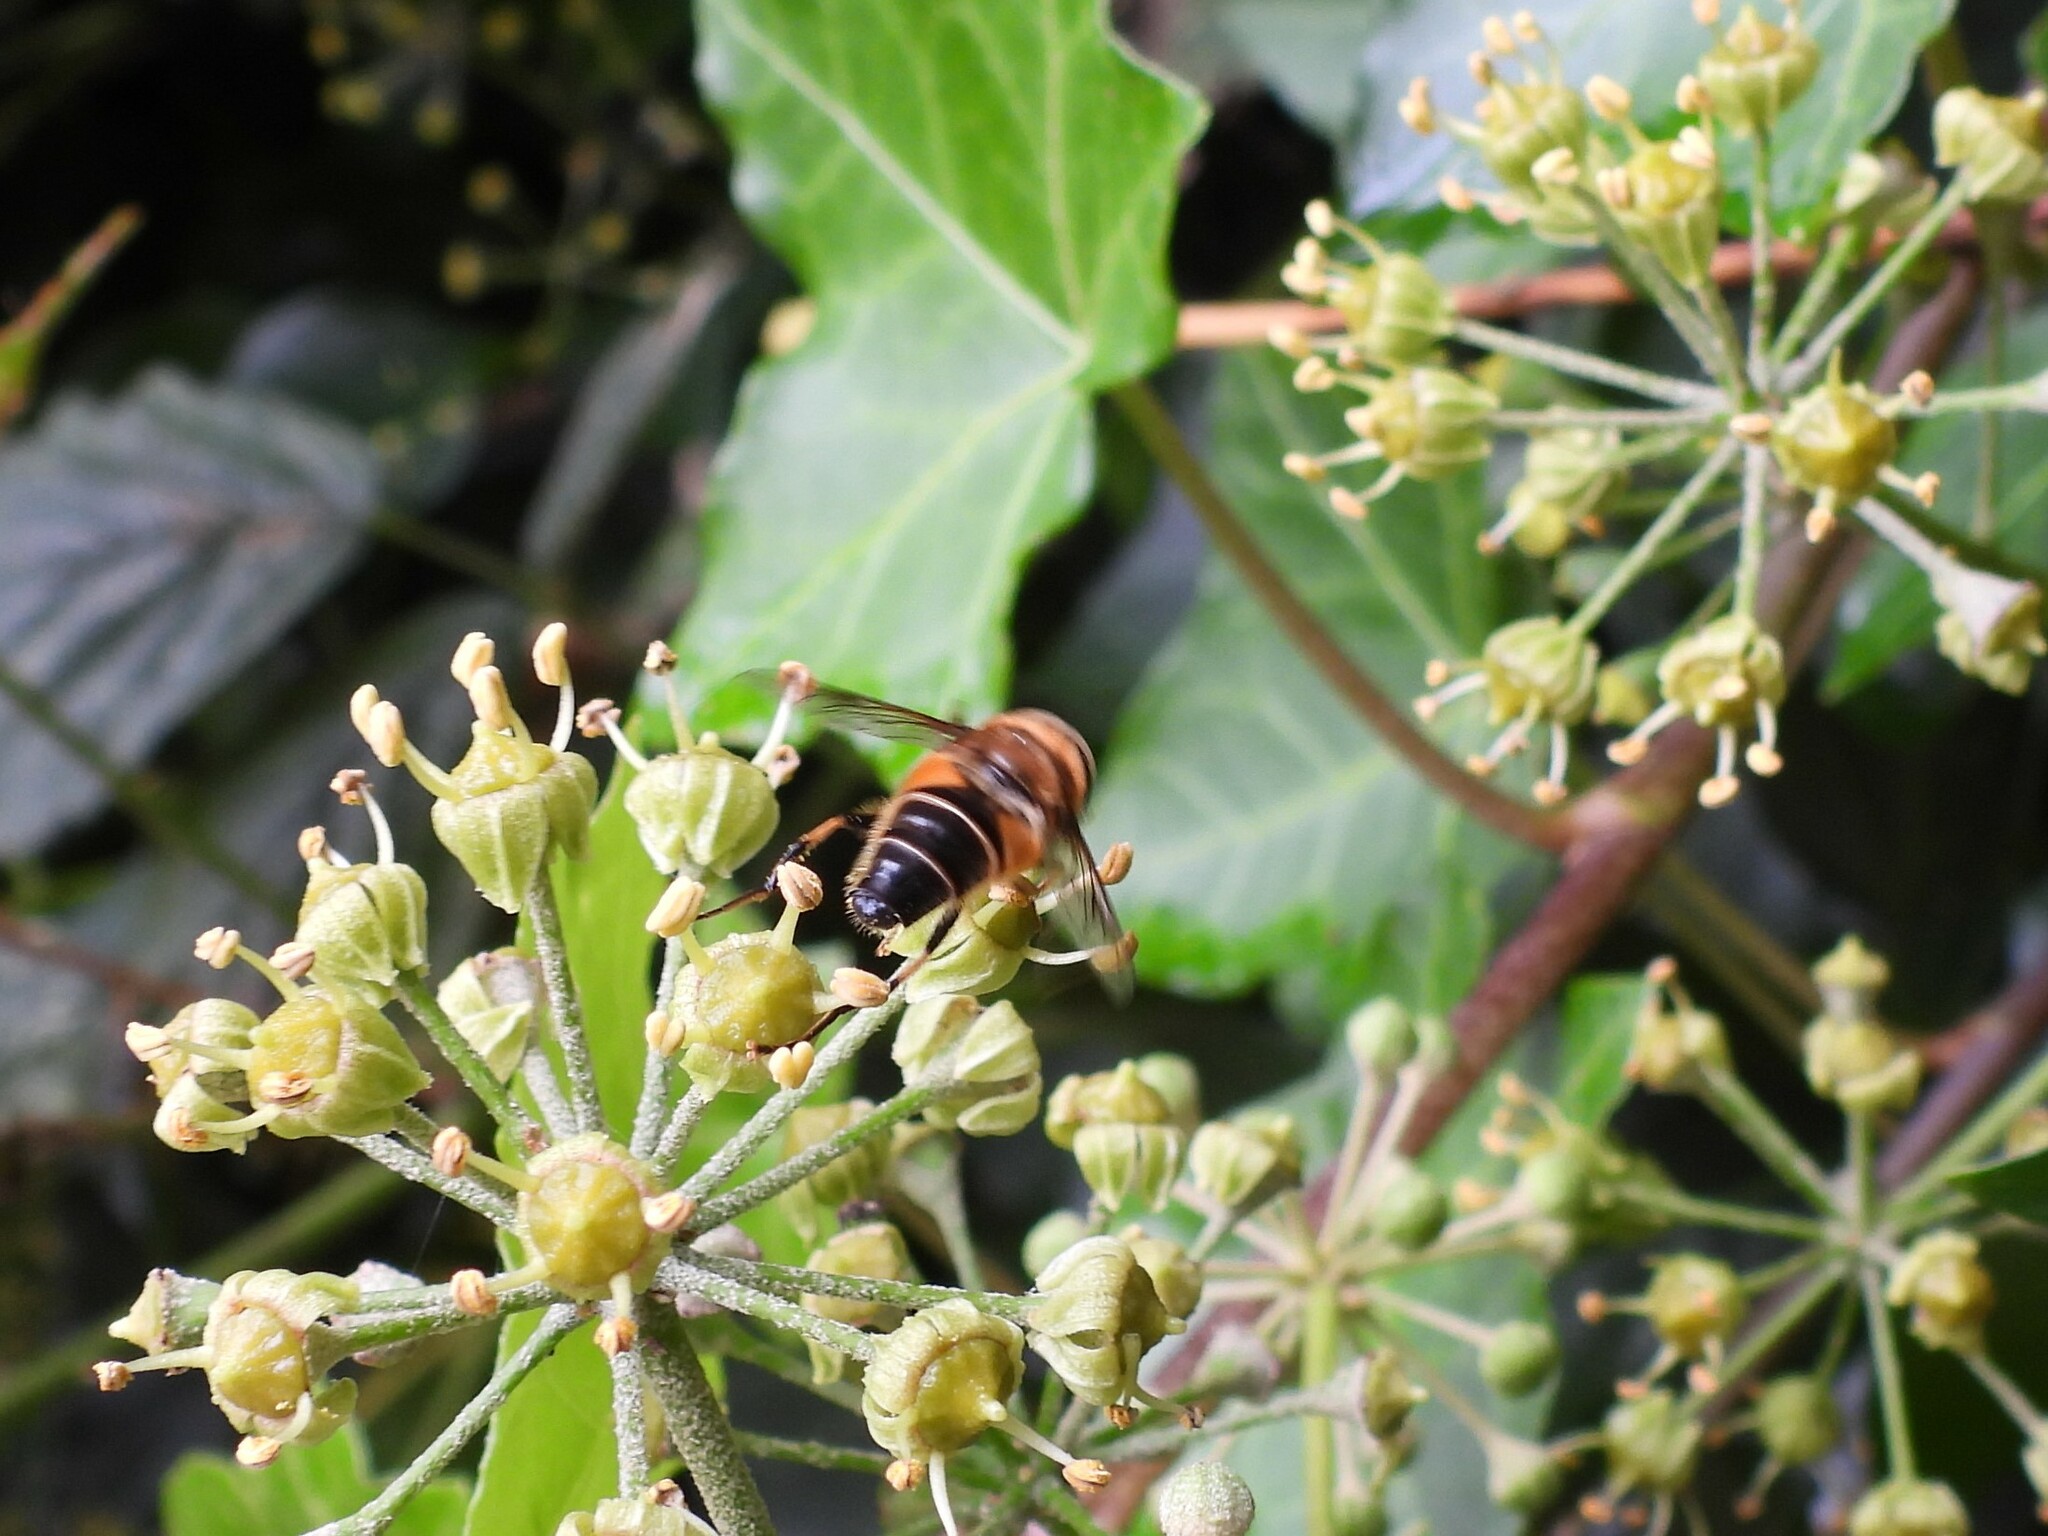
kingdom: Animalia
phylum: Arthropoda
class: Insecta
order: Diptera
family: Syrphidae
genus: Eristalis
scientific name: Eristalis pertinax
